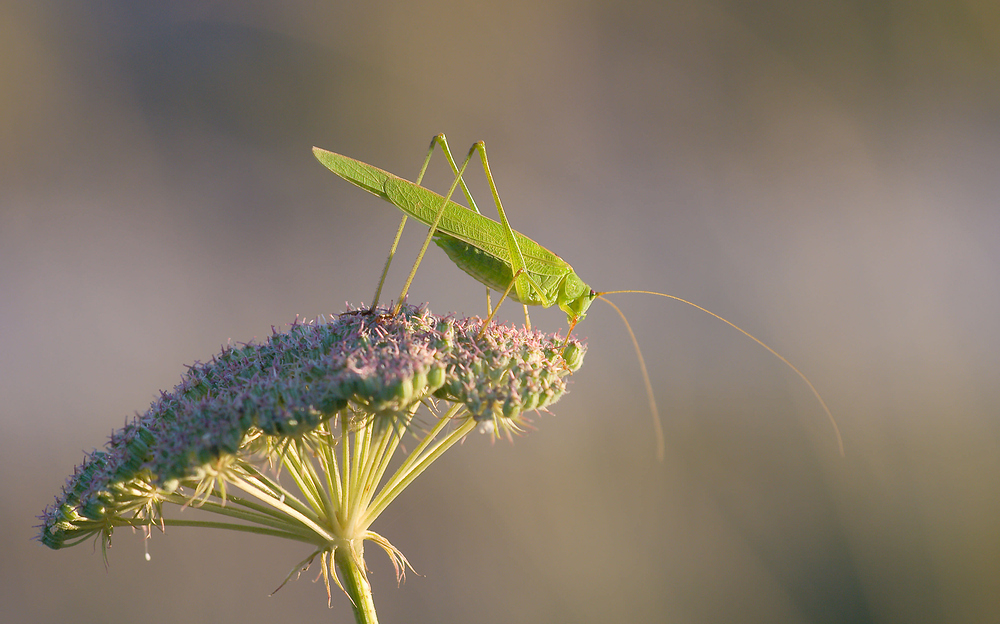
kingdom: Animalia
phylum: Arthropoda
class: Insecta
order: Orthoptera
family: Tettigoniidae
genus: Phaneroptera
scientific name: Phaneroptera falcata
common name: Sickle-bearing bush-cricket
